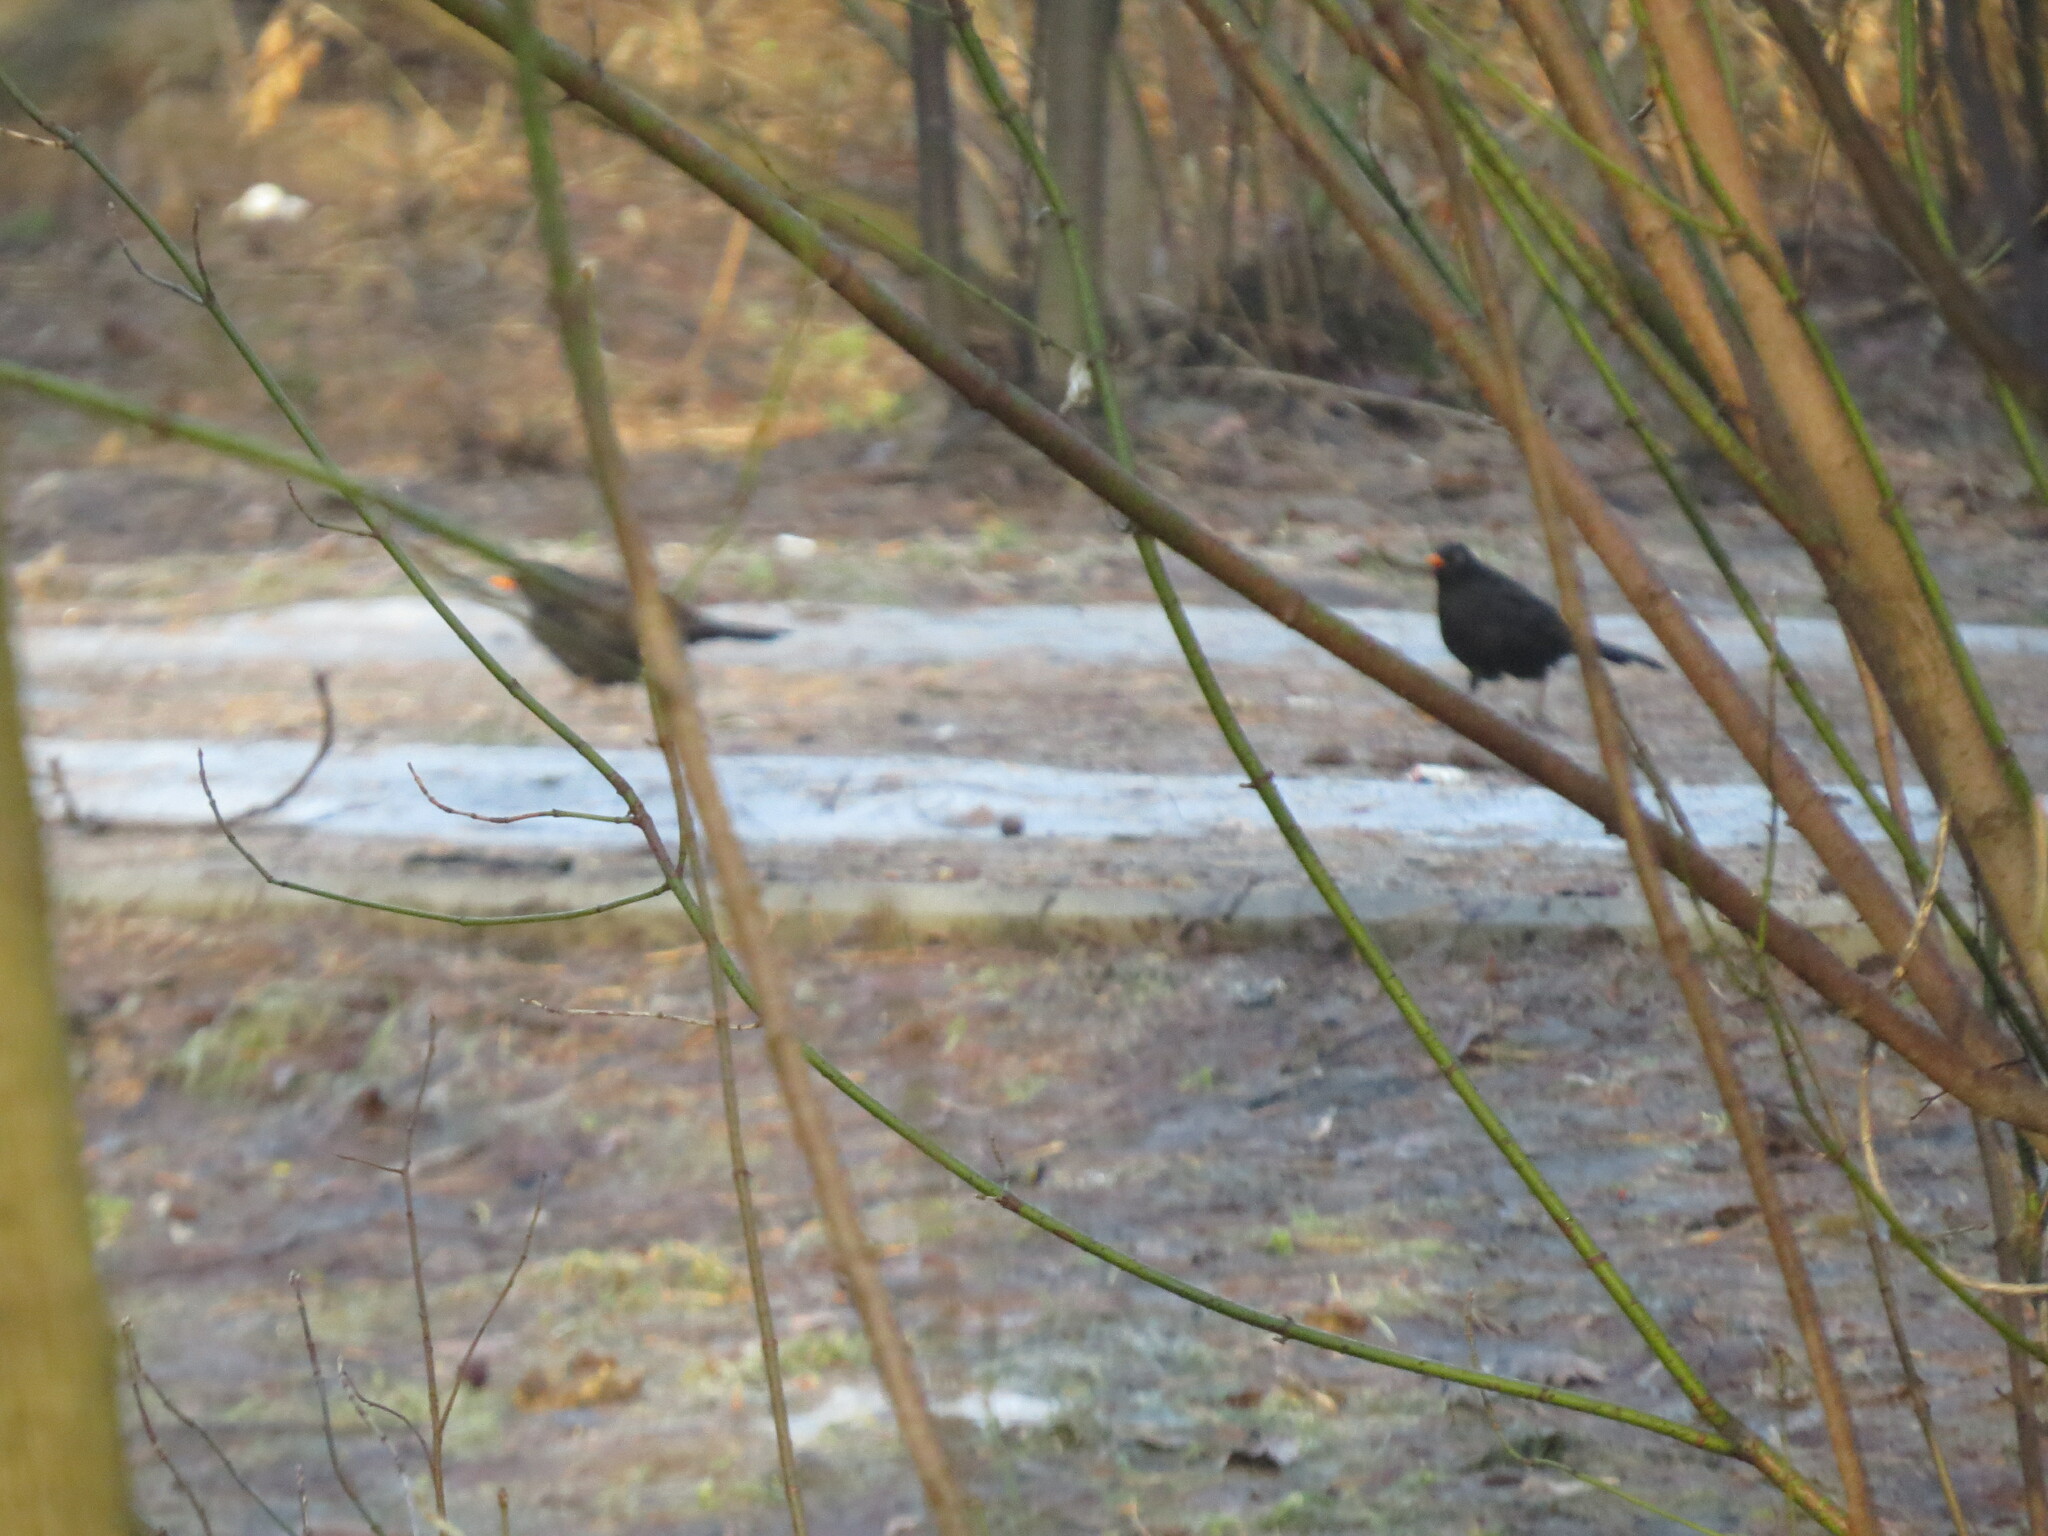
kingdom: Animalia
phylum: Chordata
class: Aves
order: Passeriformes
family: Turdidae
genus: Turdus
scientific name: Turdus merula
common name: Common blackbird
